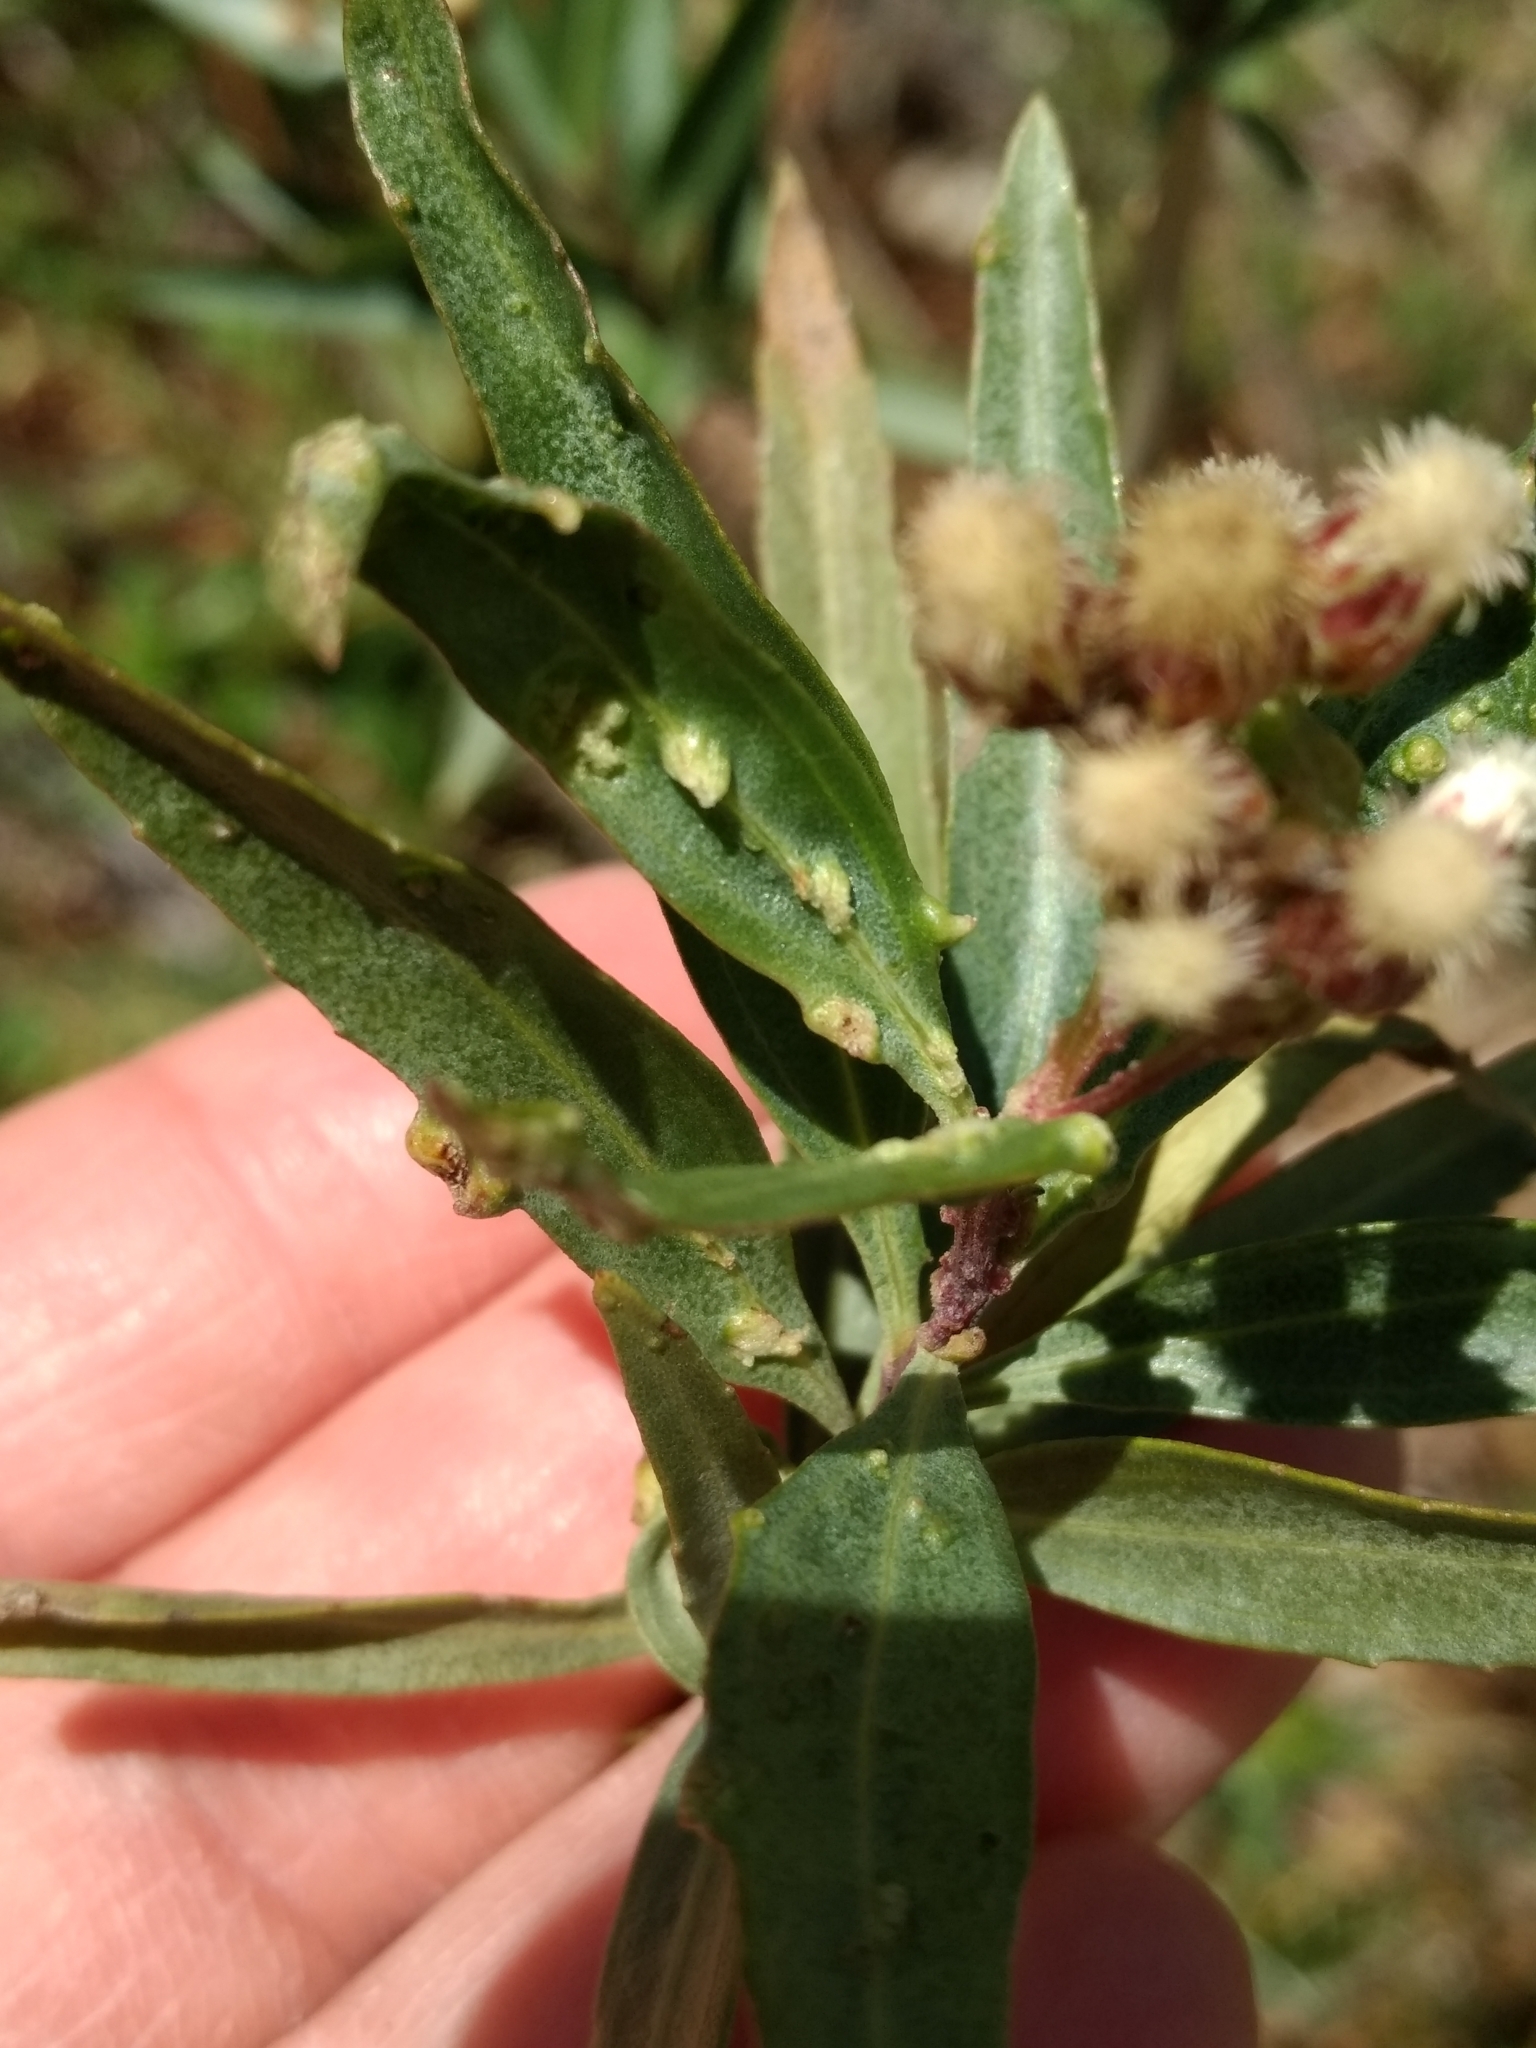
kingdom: Animalia
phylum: Arthropoda
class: Arachnida
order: Trombidiformes
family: Eriophyidae
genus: Aceria
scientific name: Aceria
